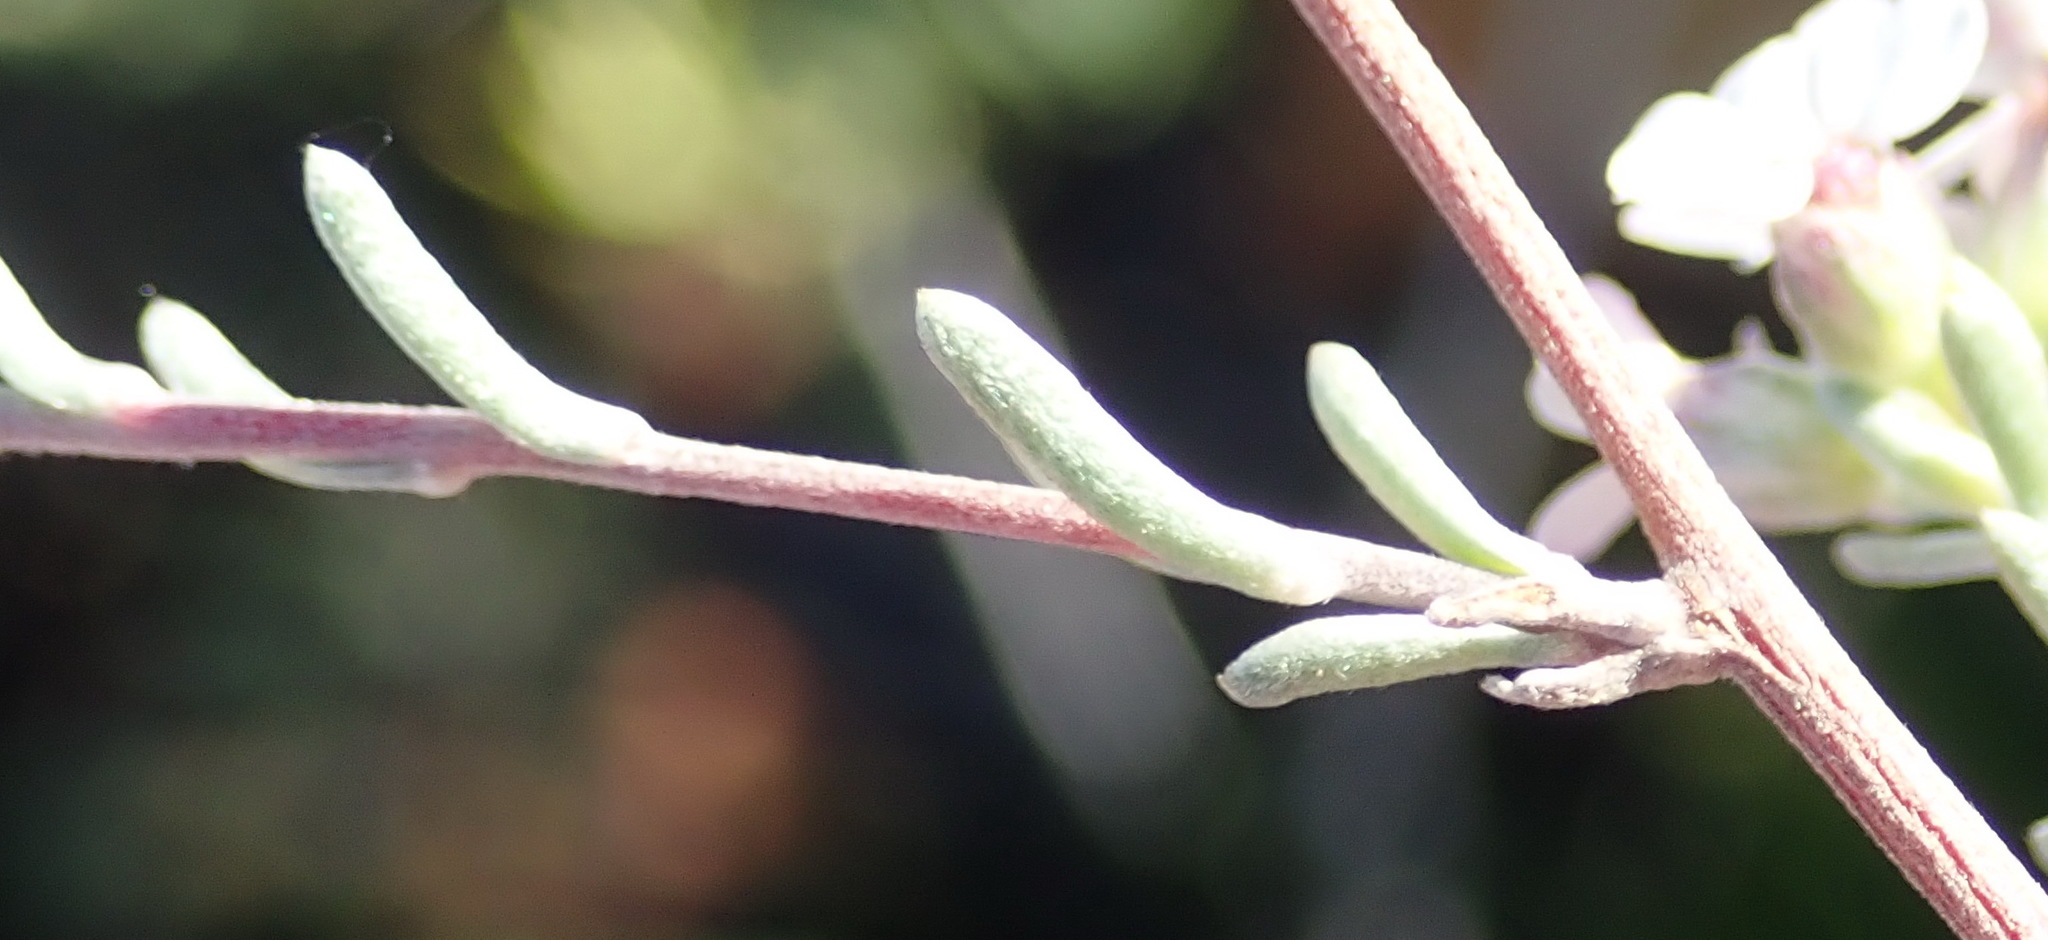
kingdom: Plantae
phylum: Tracheophyta
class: Magnoliopsida
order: Asterales
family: Asteraceae
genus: Eriocephalus
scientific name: Eriocephalus africanus
